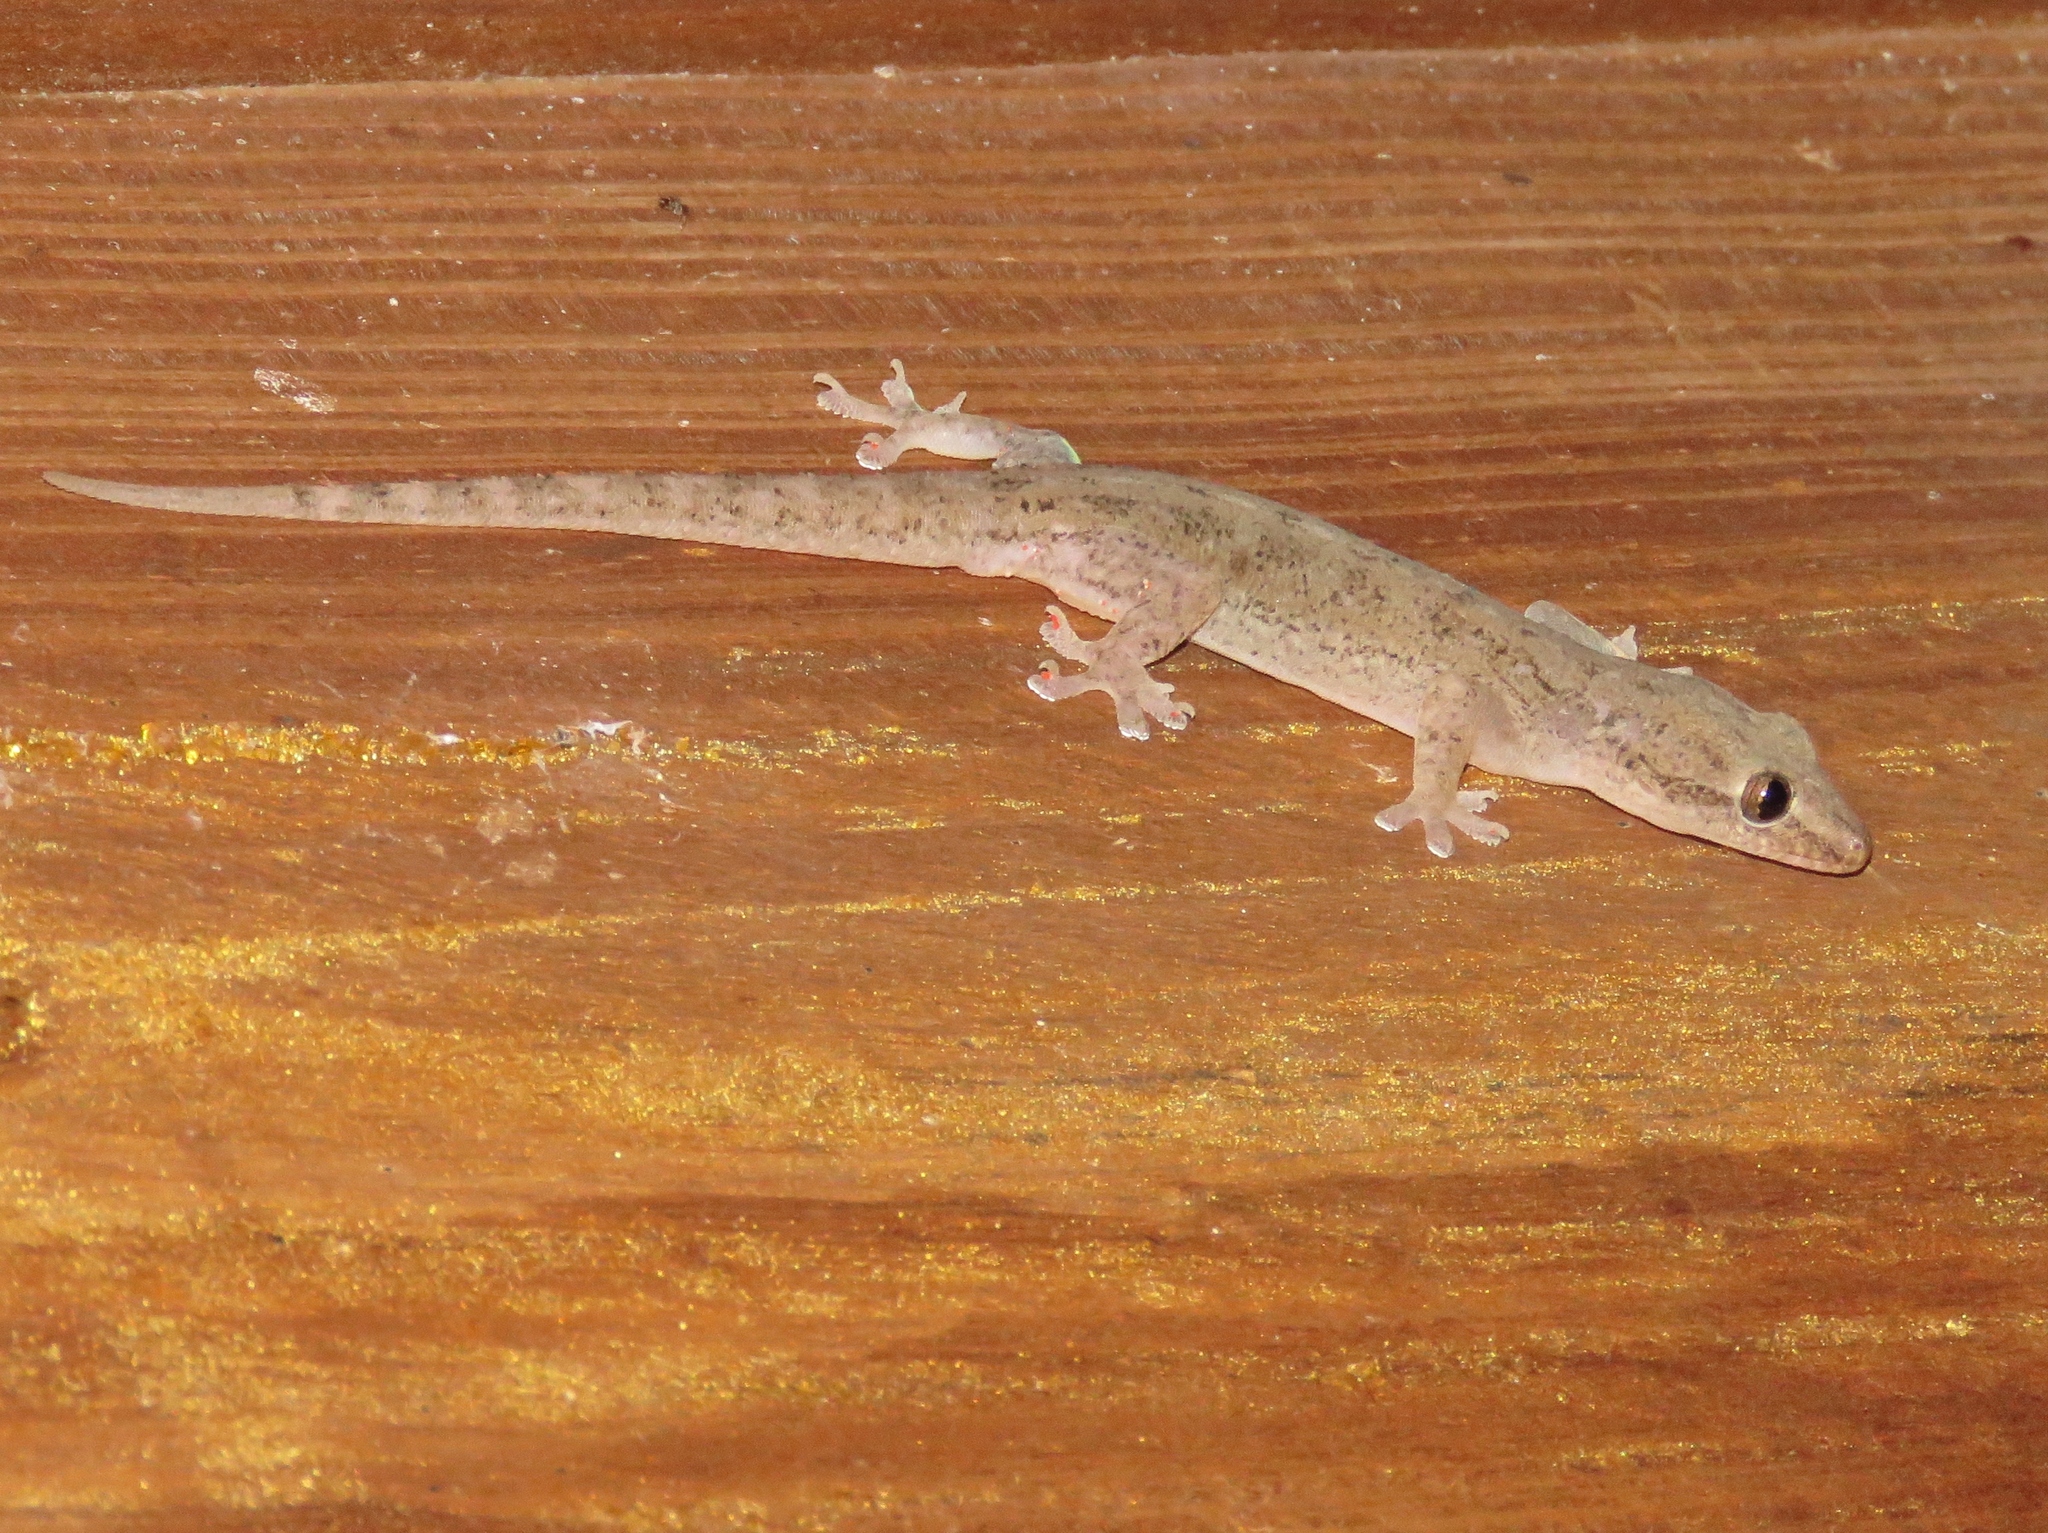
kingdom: Animalia
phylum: Chordata
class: Squamata
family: Gekkonidae
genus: Hemidactylus
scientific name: Hemidactylus frenatus
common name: Common house gecko
